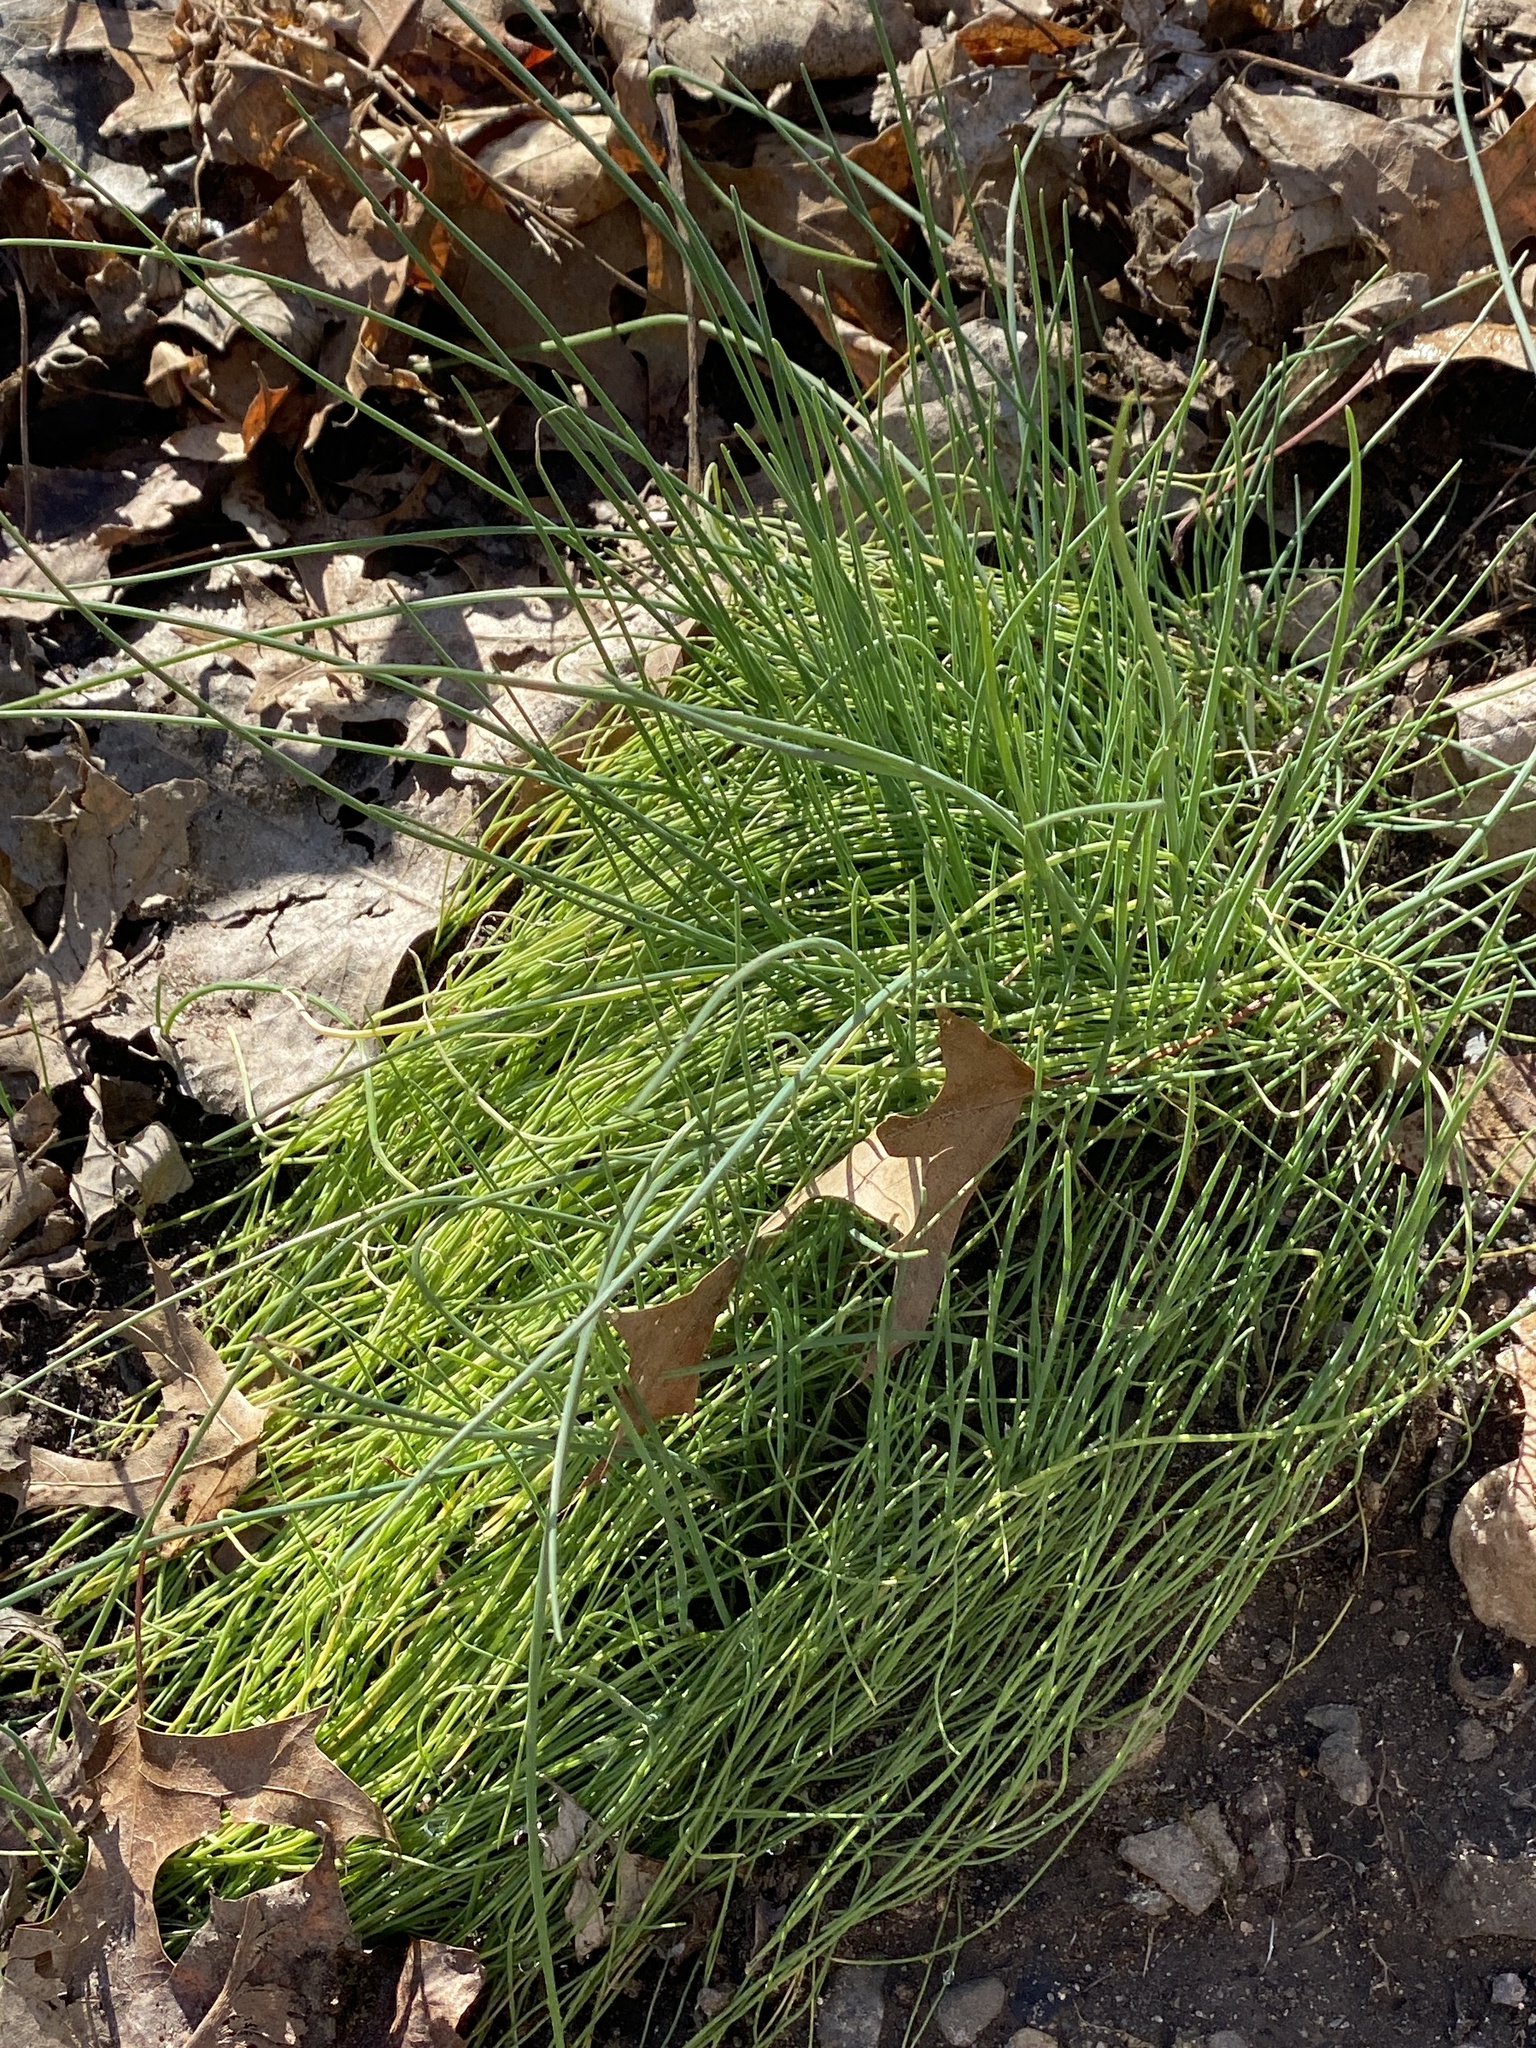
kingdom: Plantae
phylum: Tracheophyta
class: Liliopsida
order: Asparagales
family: Amaryllidaceae
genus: Allium
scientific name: Allium vineale
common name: Crow garlic
